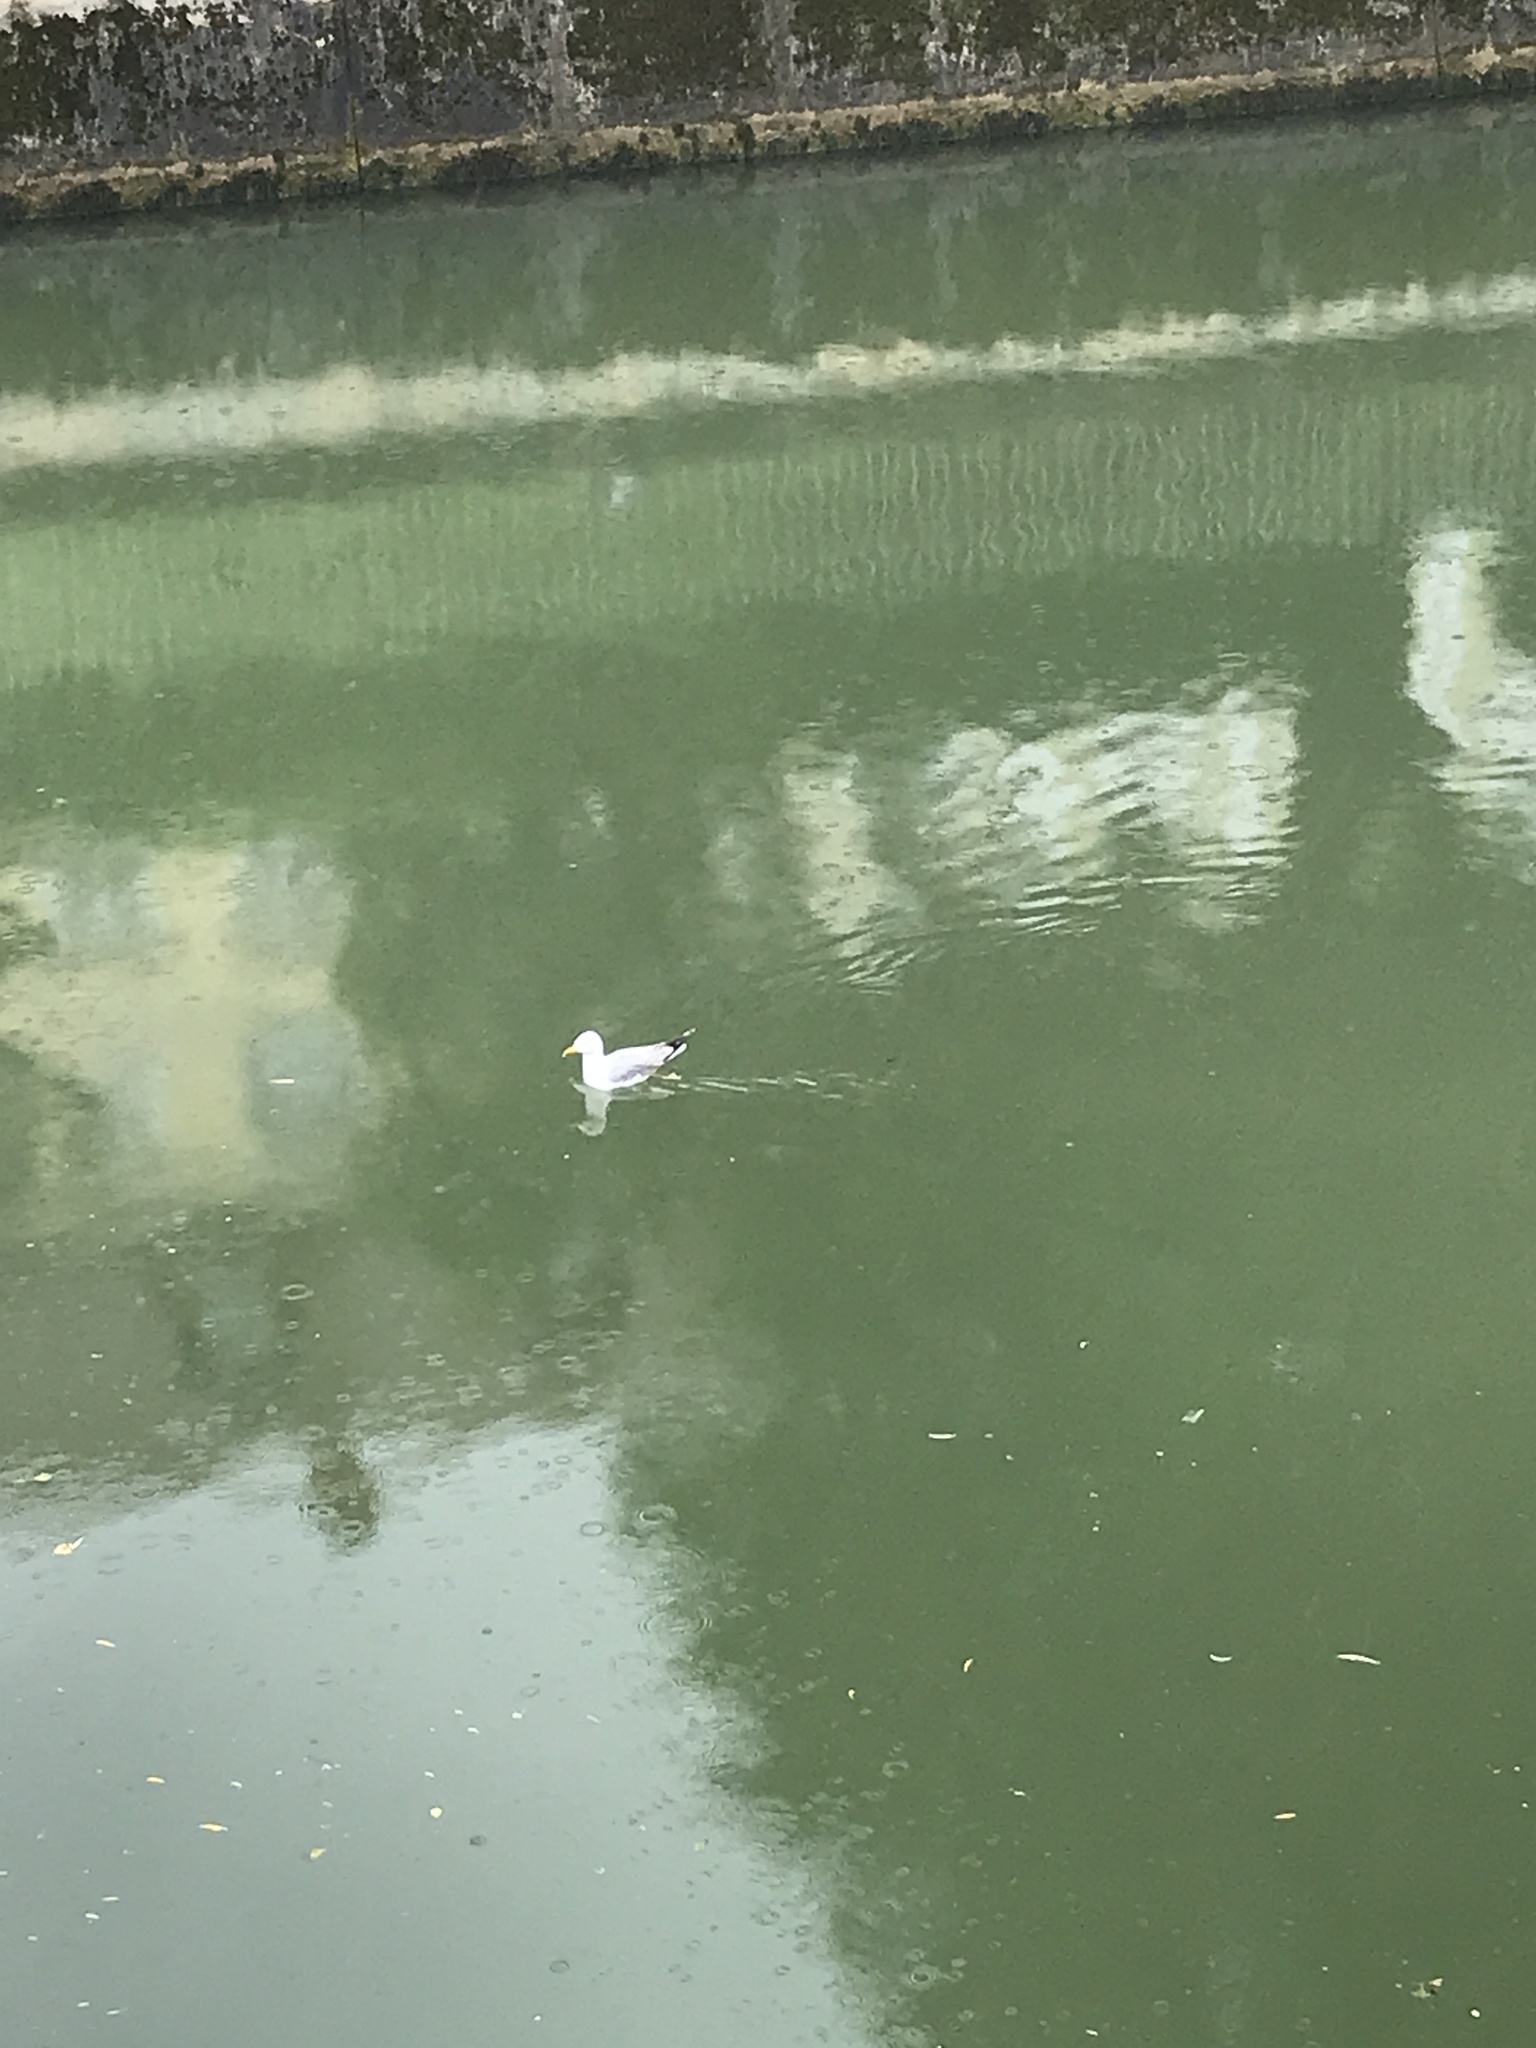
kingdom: Animalia
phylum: Chordata
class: Aves
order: Charadriiformes
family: Laridae
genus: Larus
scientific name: Larus michahellis
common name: Yellow-legged gull
